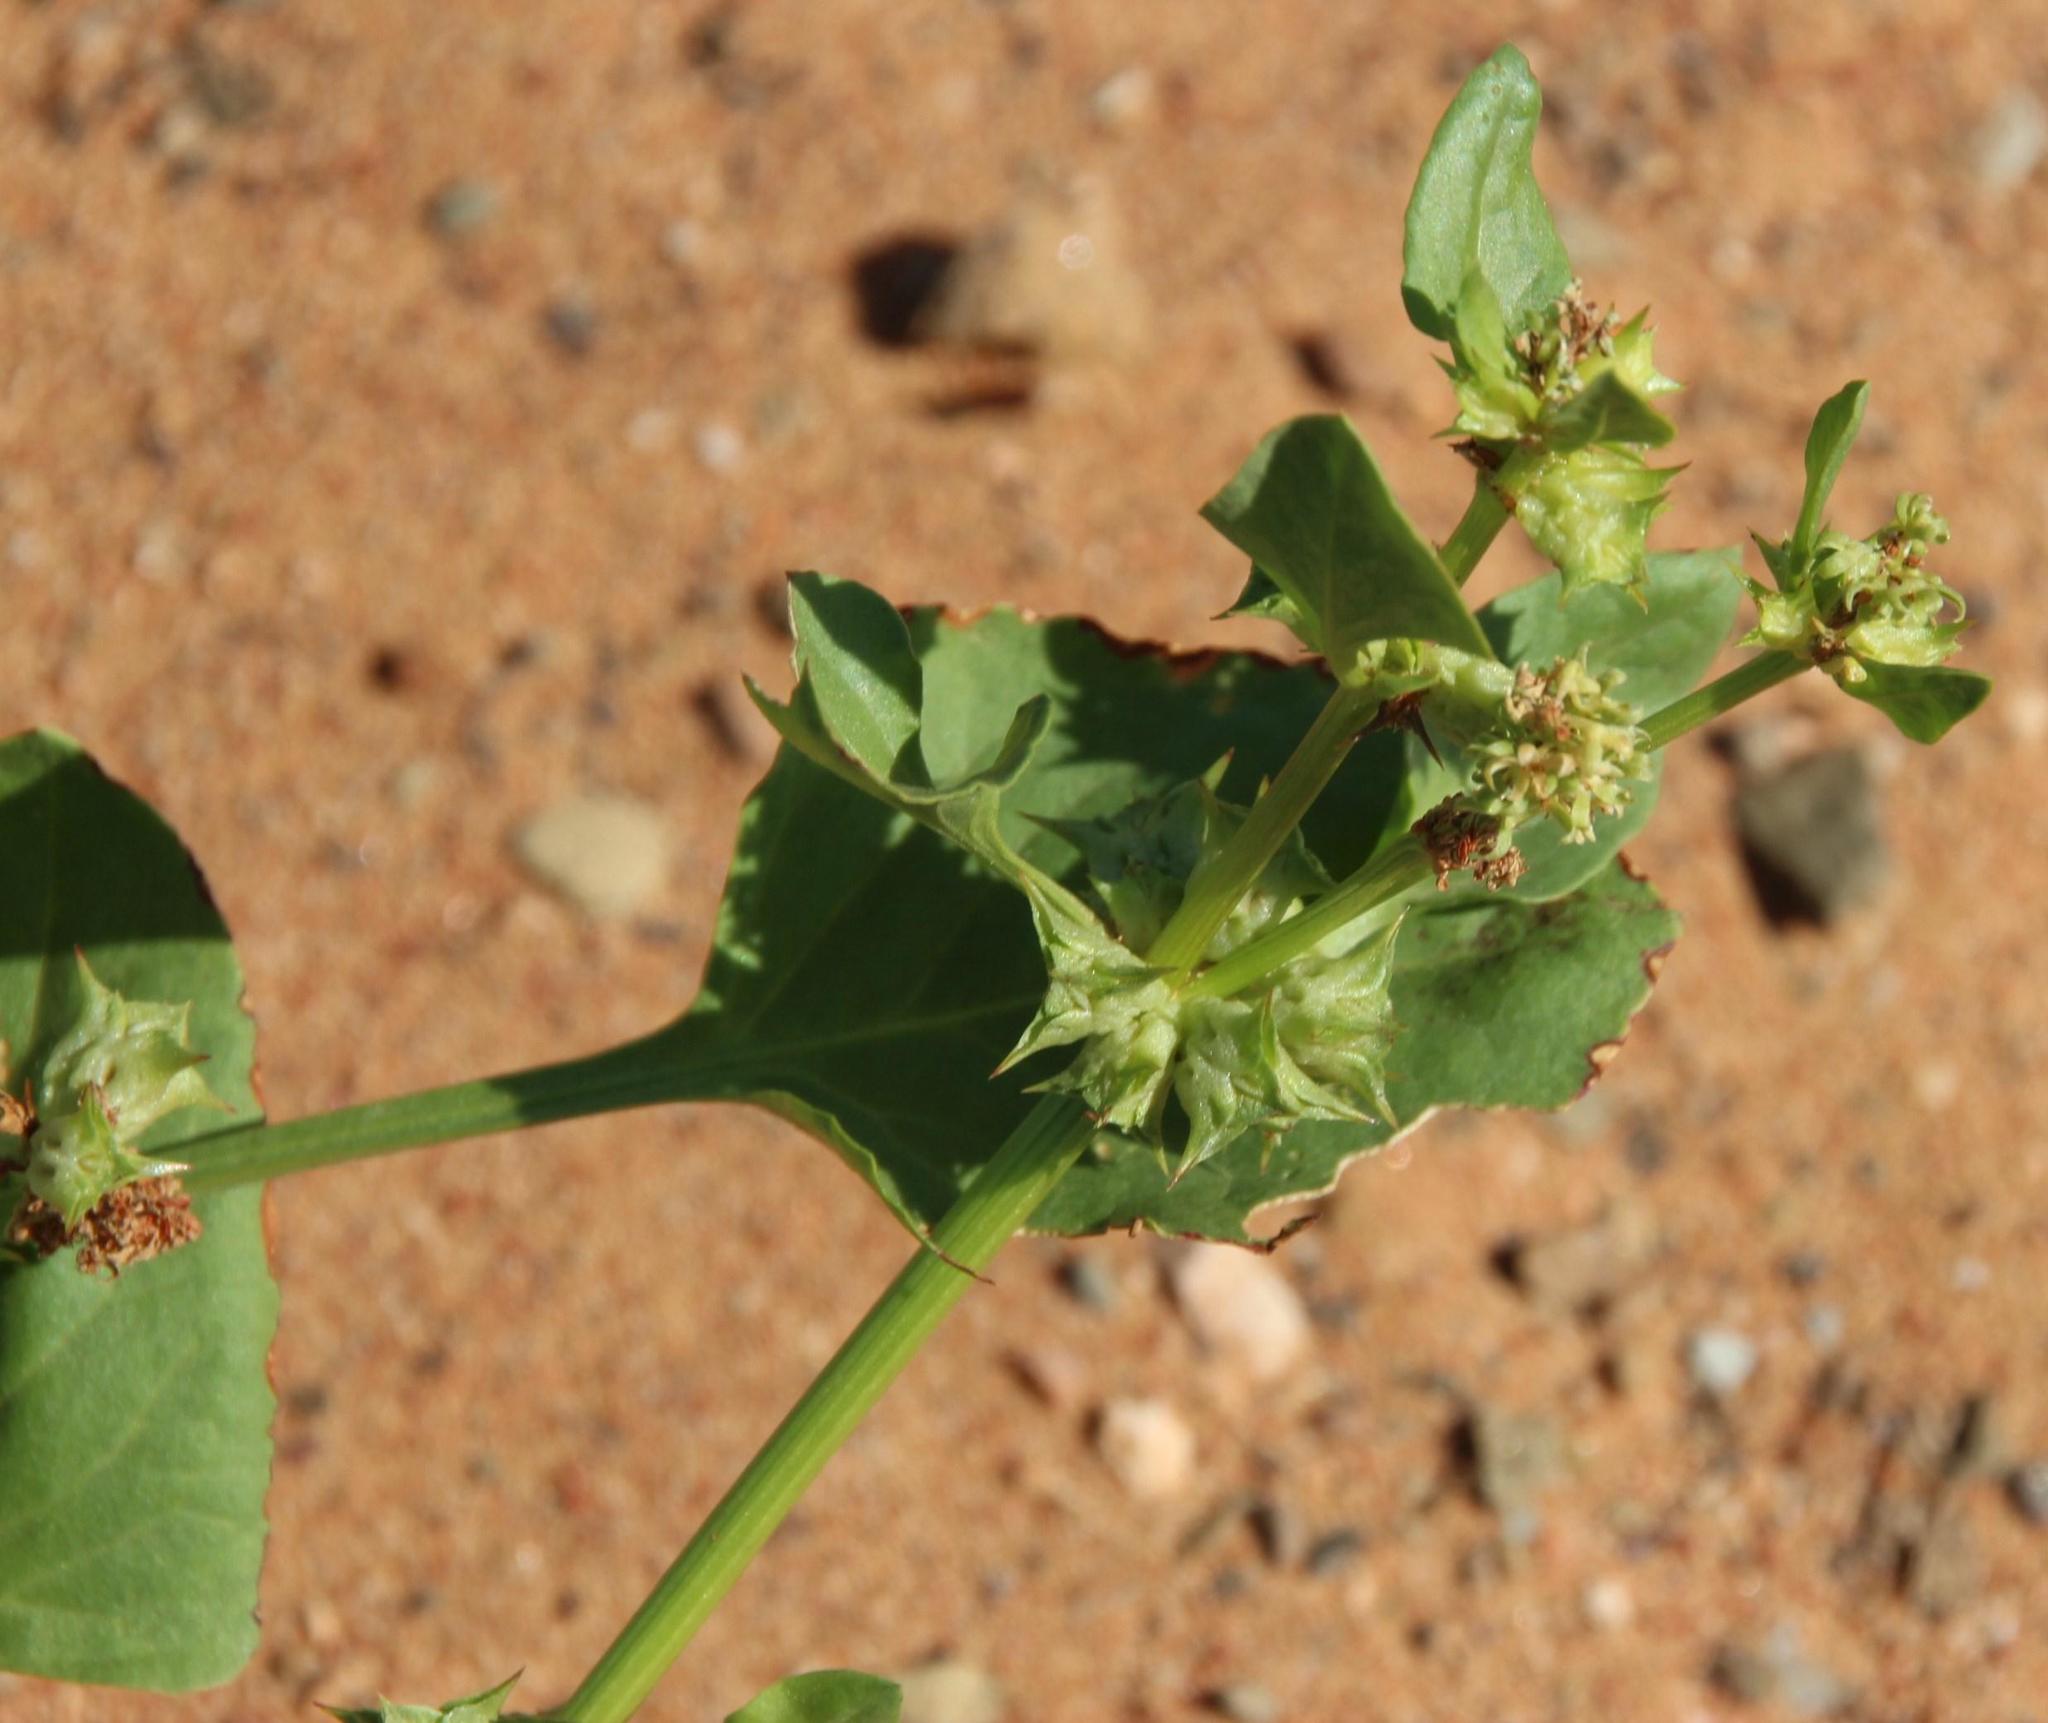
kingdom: Plantae
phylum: Tracheophyta
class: Magnoliopsida
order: Caryophyllales
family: Polygonaceae
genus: Rumex
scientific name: Rumex hypogaeus
